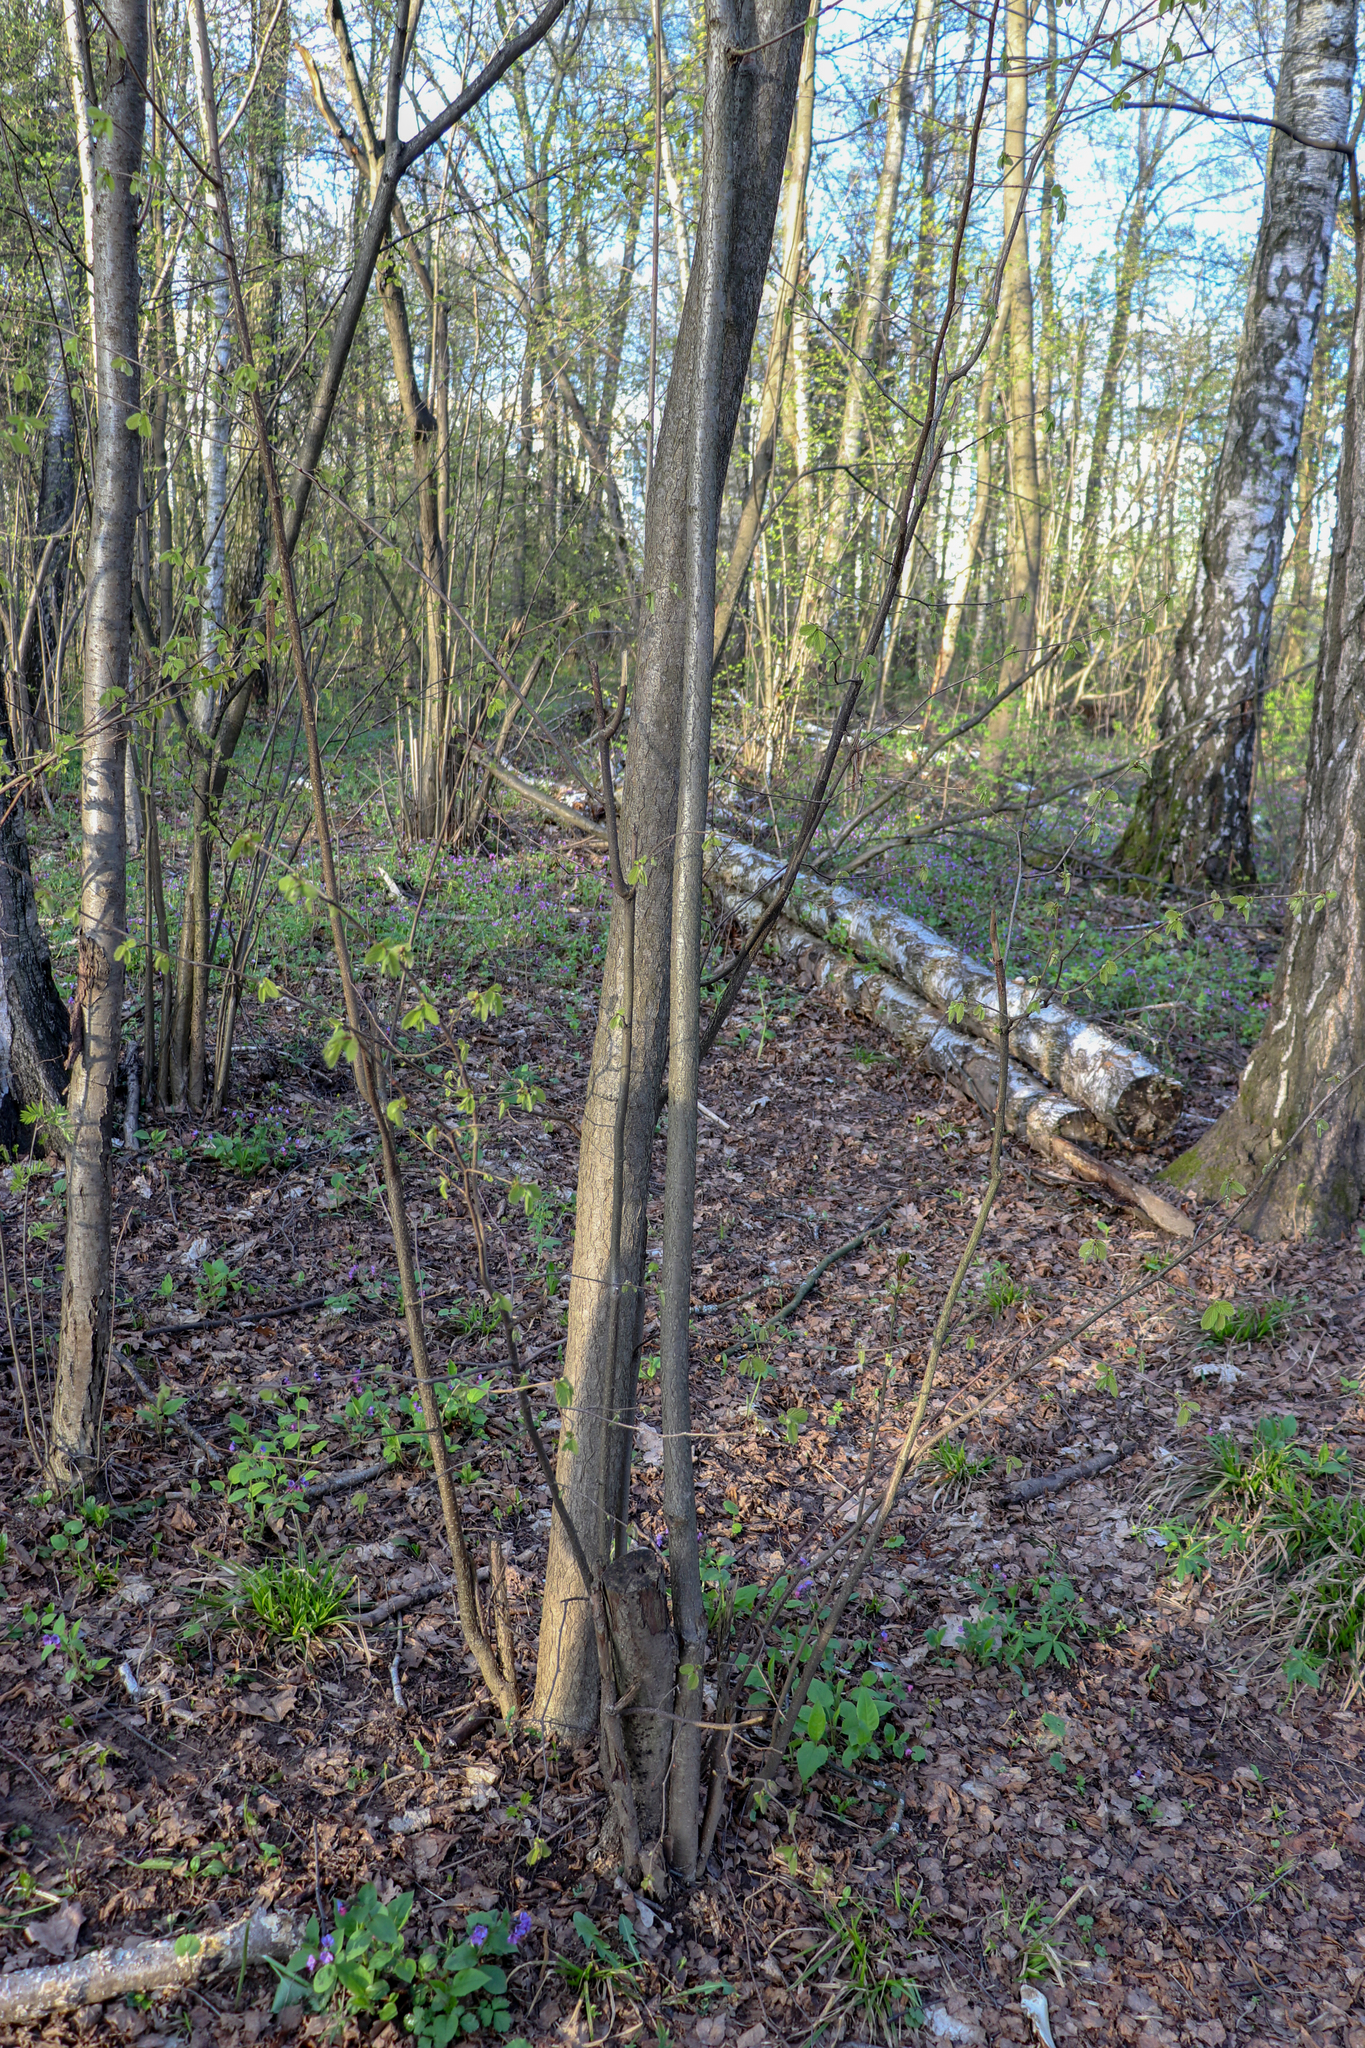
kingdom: Plantae
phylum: Tracheophyta
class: Magnoliopsida
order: Fagales
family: Betulaceae
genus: Corylus
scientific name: Corylus avellana
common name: European hazel
